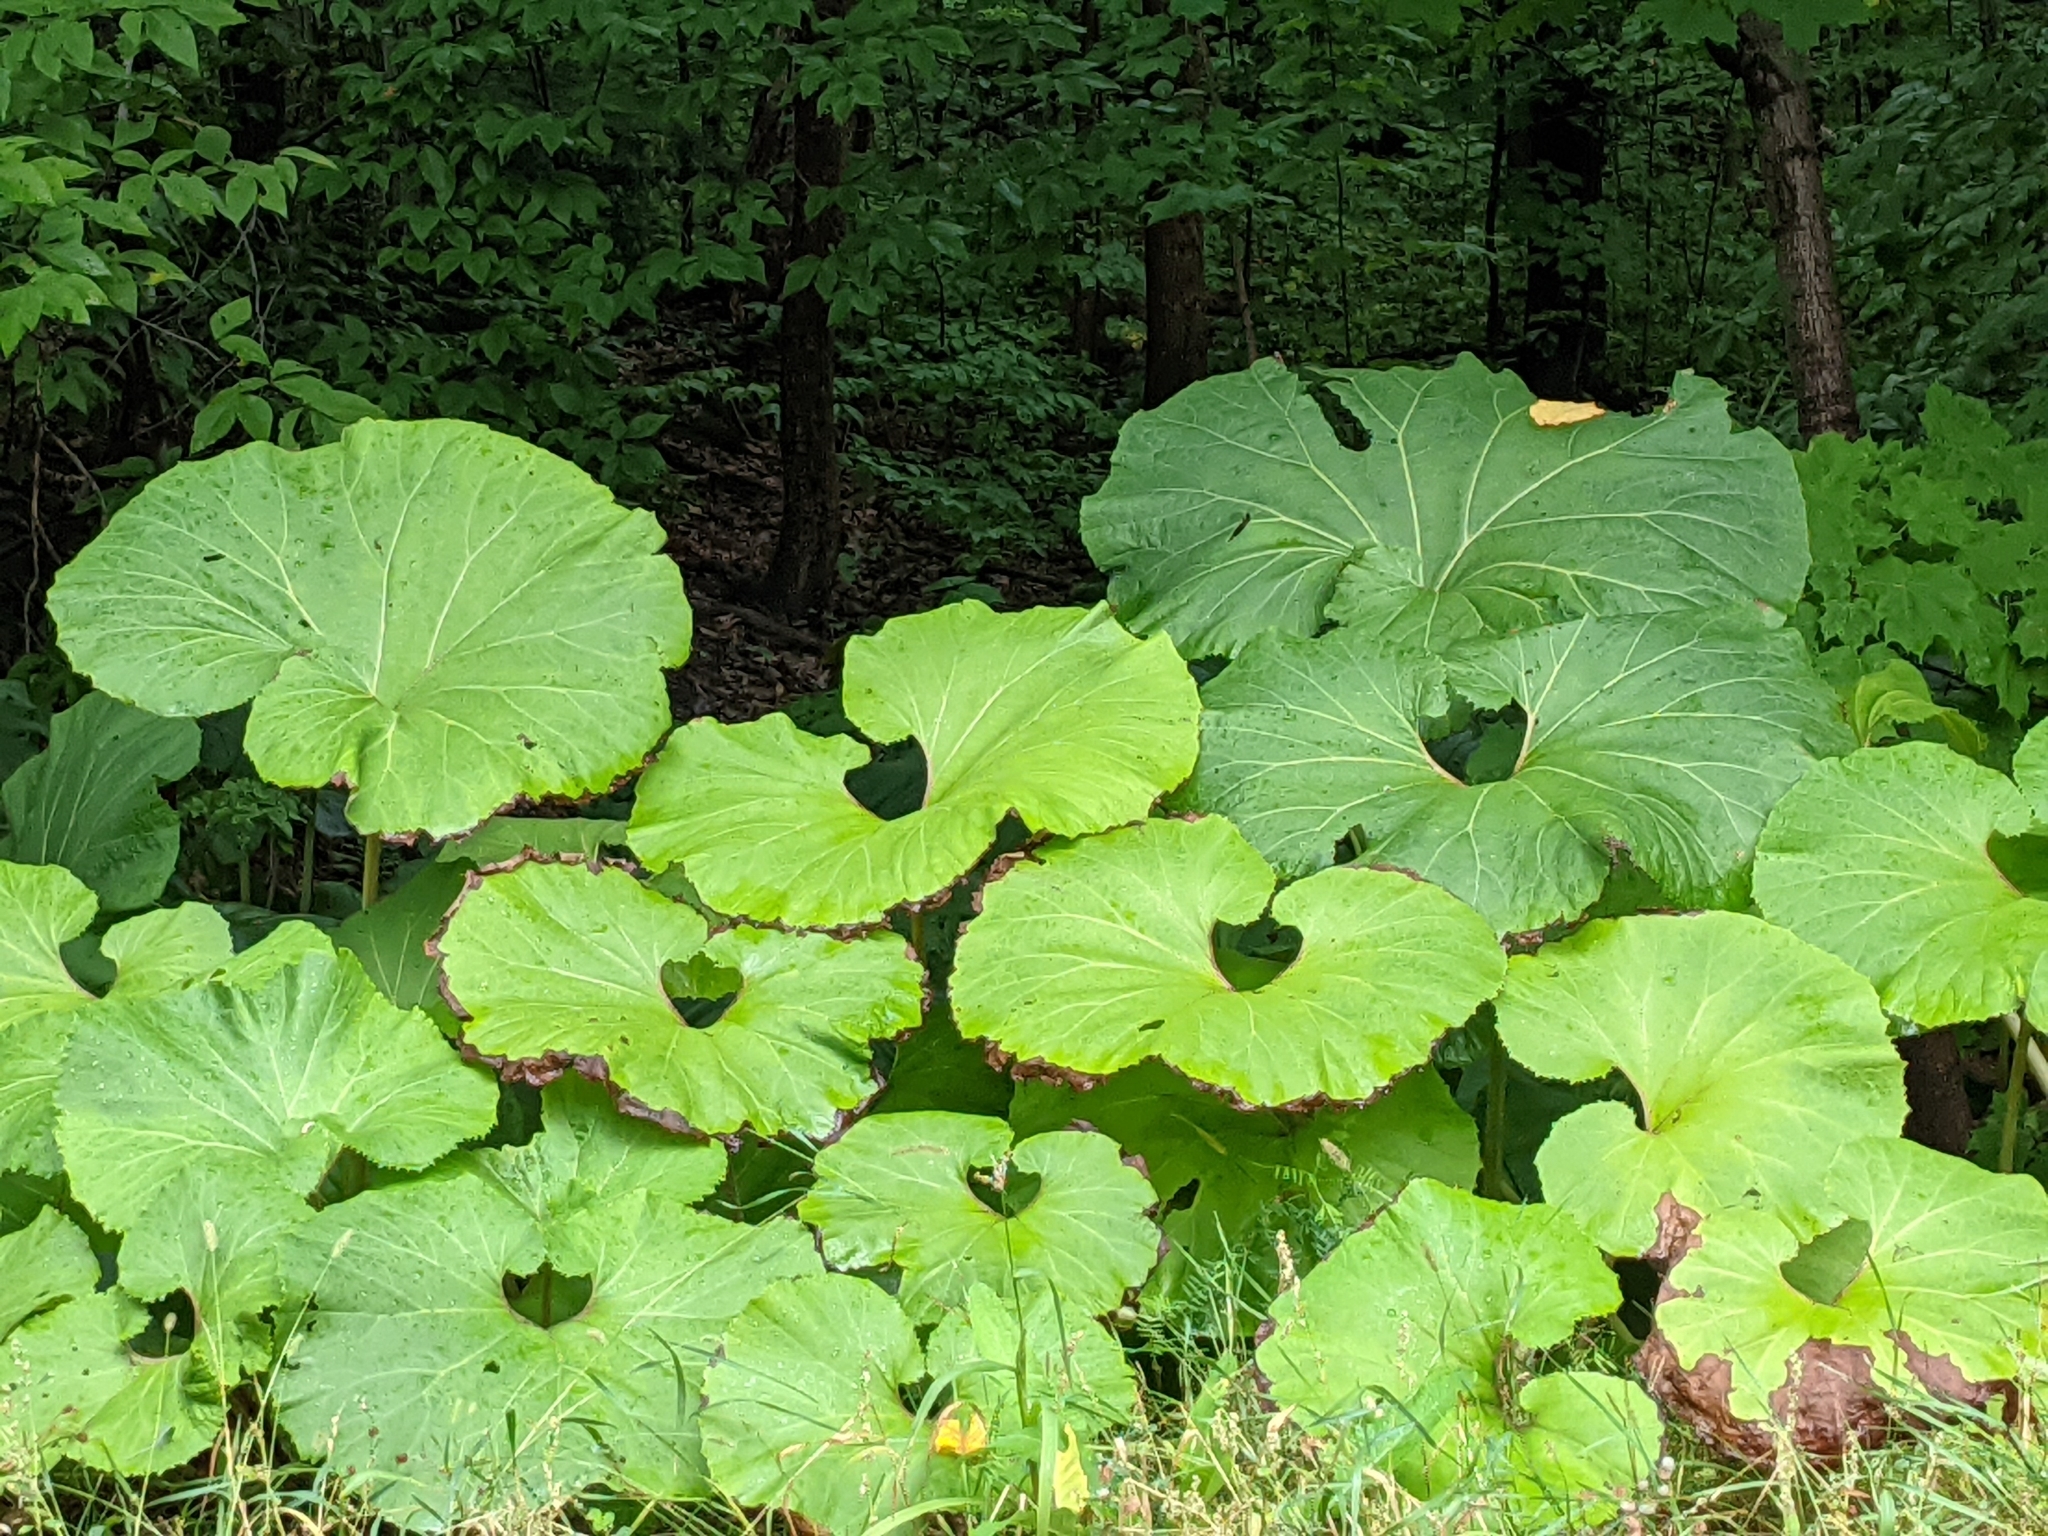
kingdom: Plantae
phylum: Tracheophyta
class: Magnoliopsida
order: Asterales
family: Asteraceae
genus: Petasites
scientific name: Petasites japonicus
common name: Giant butterbur
